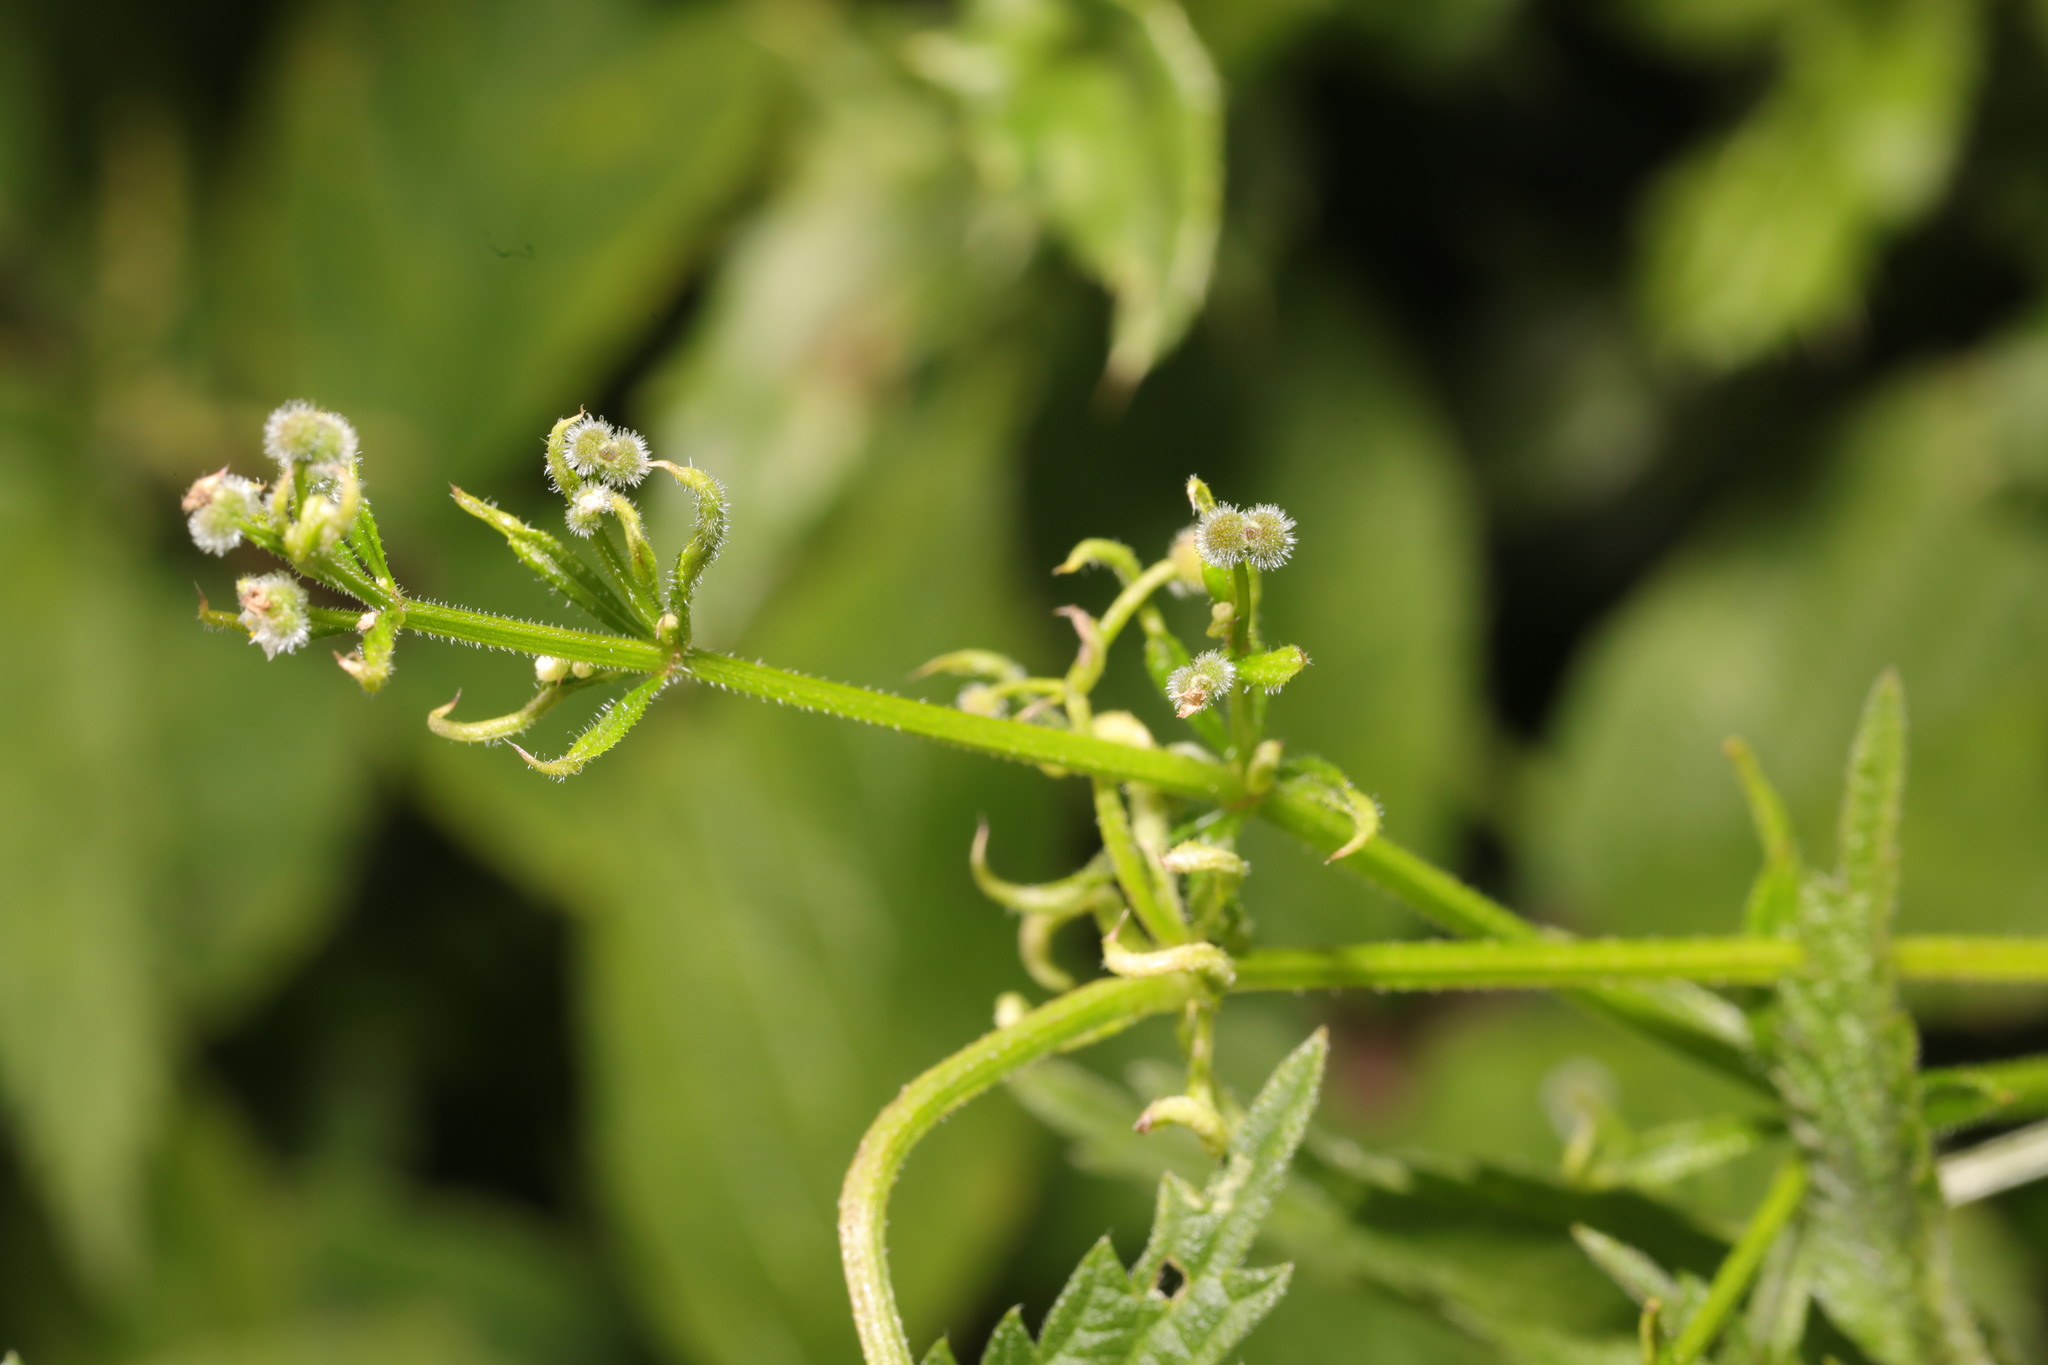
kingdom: Plantae
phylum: Tracheophyta
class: Magnoliopsida
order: Gentianales
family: Rubiaceae
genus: Galium
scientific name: Galium aparine
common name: Cleavers
